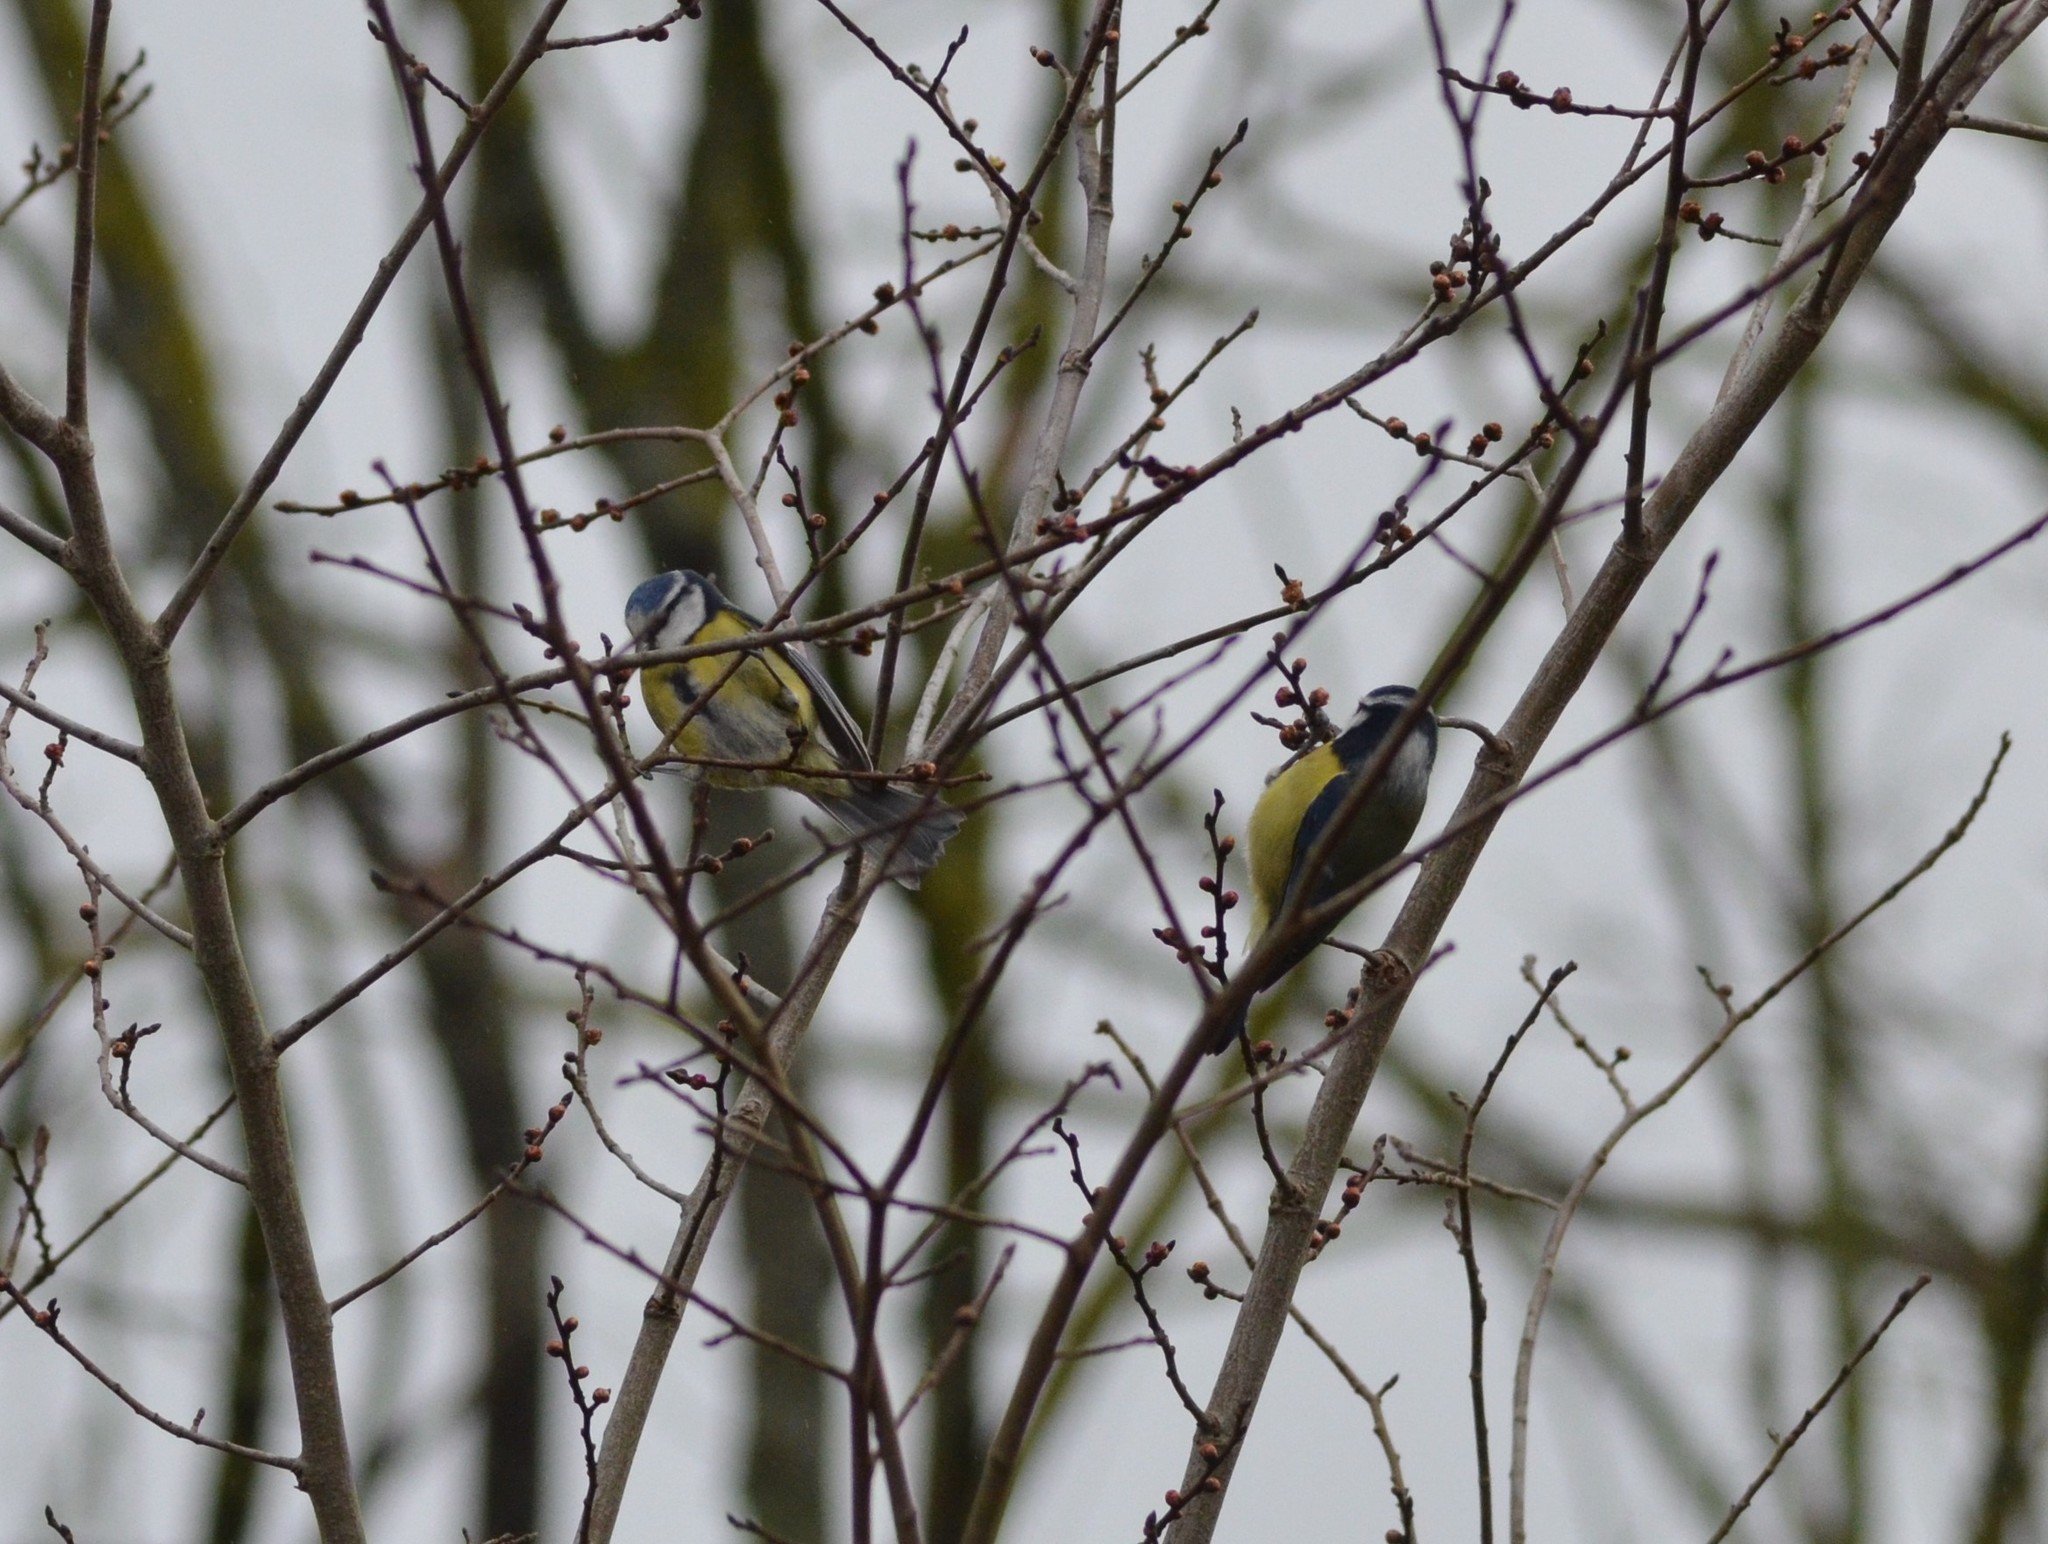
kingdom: Animalia
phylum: Chordata
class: Aves
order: Passeriformes
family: Paridae
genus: Cyanistes
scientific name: Cyanistes caeruleus
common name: Eurasian blue tit
